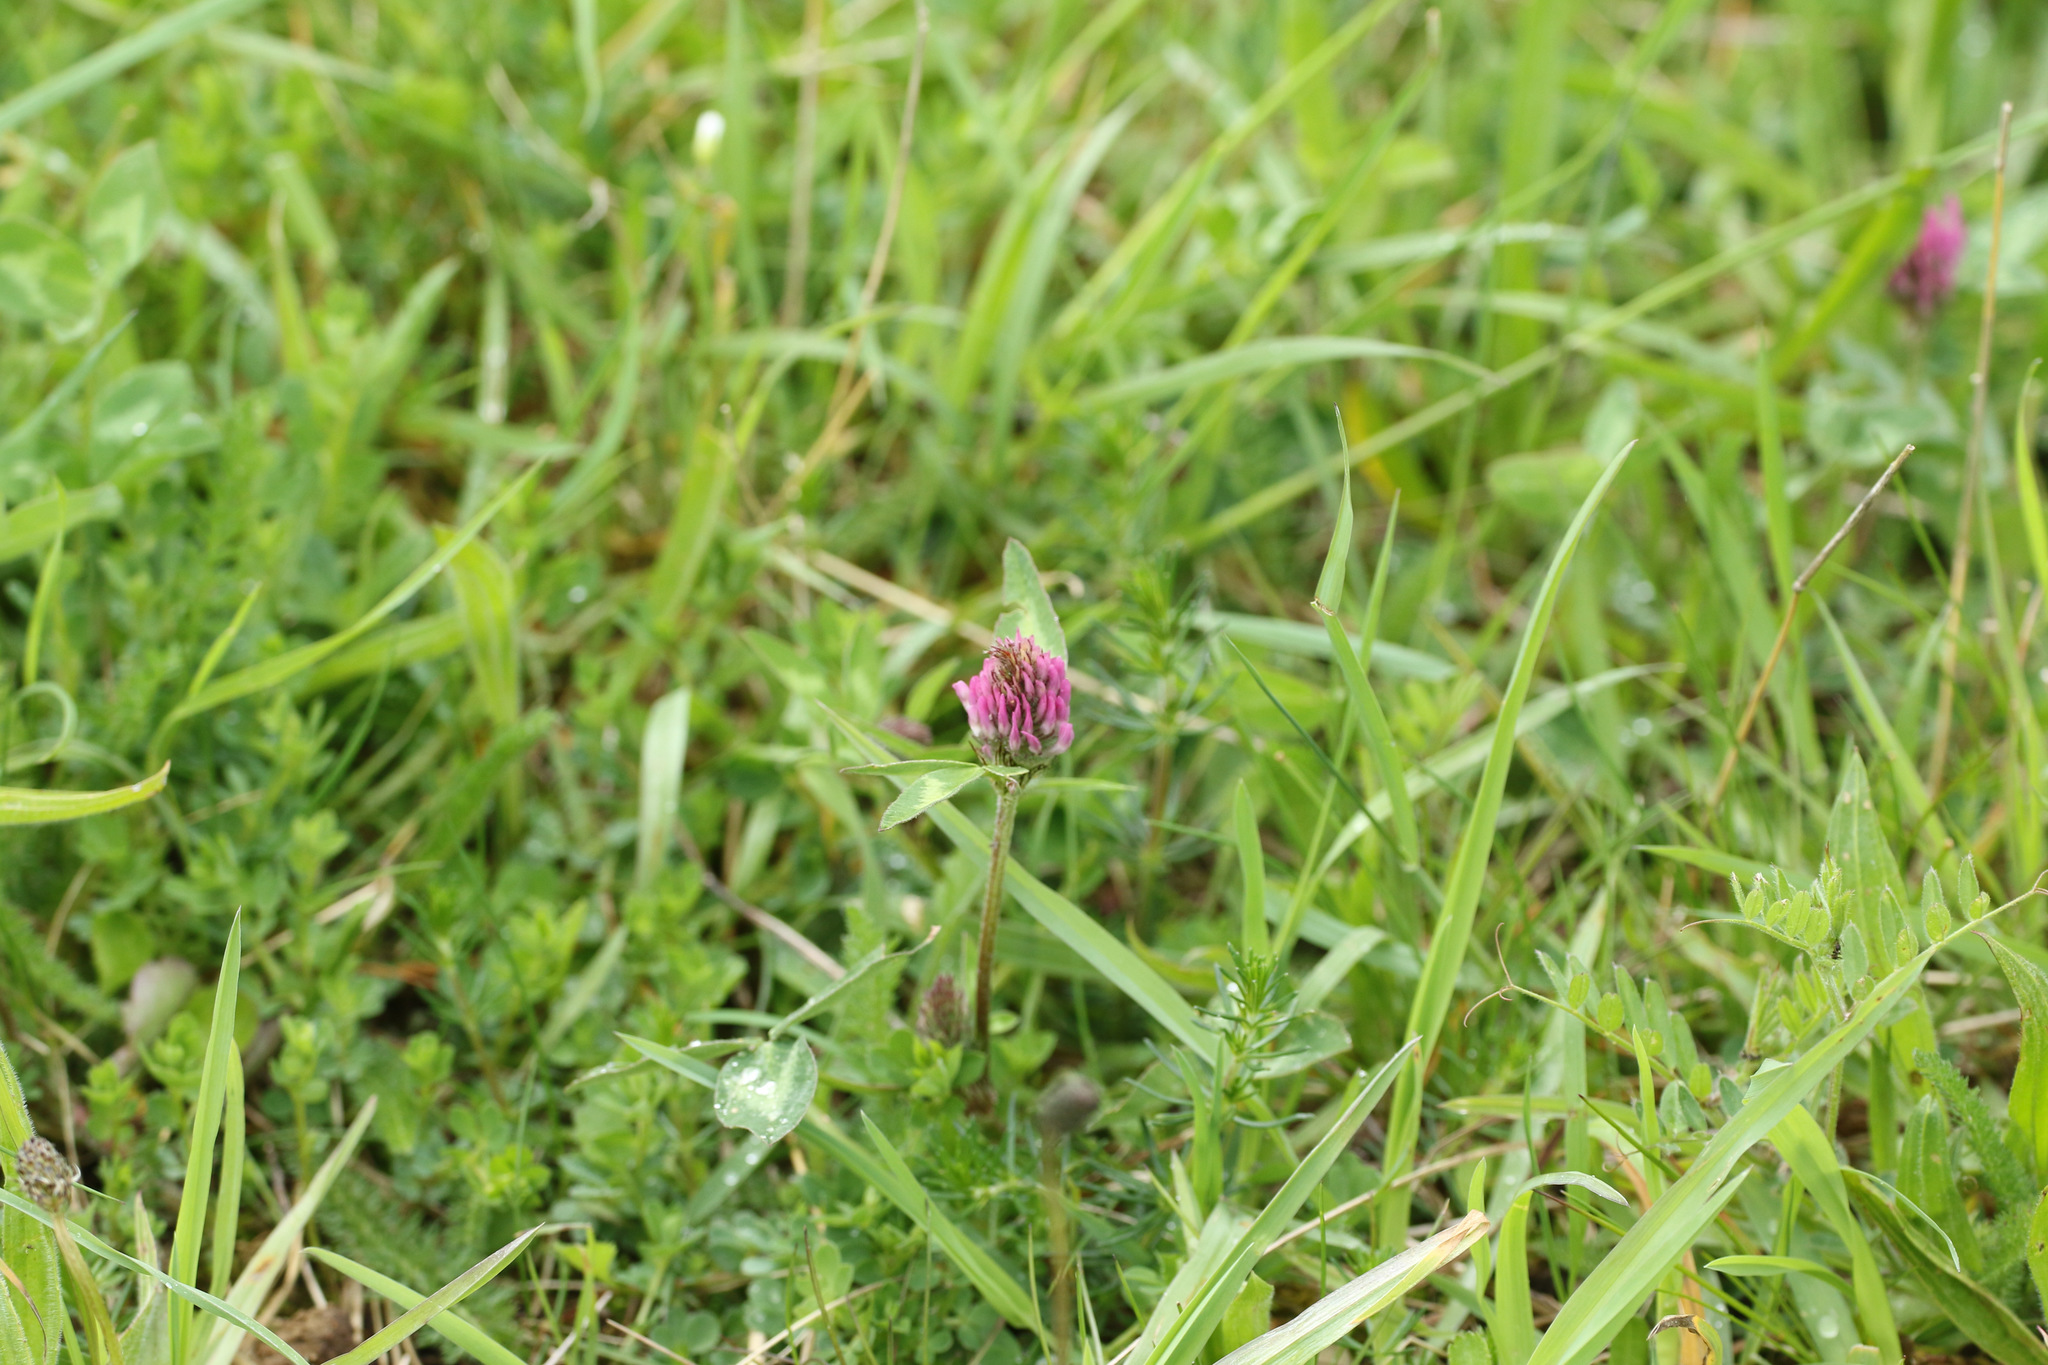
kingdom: Plantae
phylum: Tracheophyta
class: Magnoliopsida
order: Fabales
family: Fabaceae
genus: Trifolium
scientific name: Trifolium pratense
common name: Red clover
